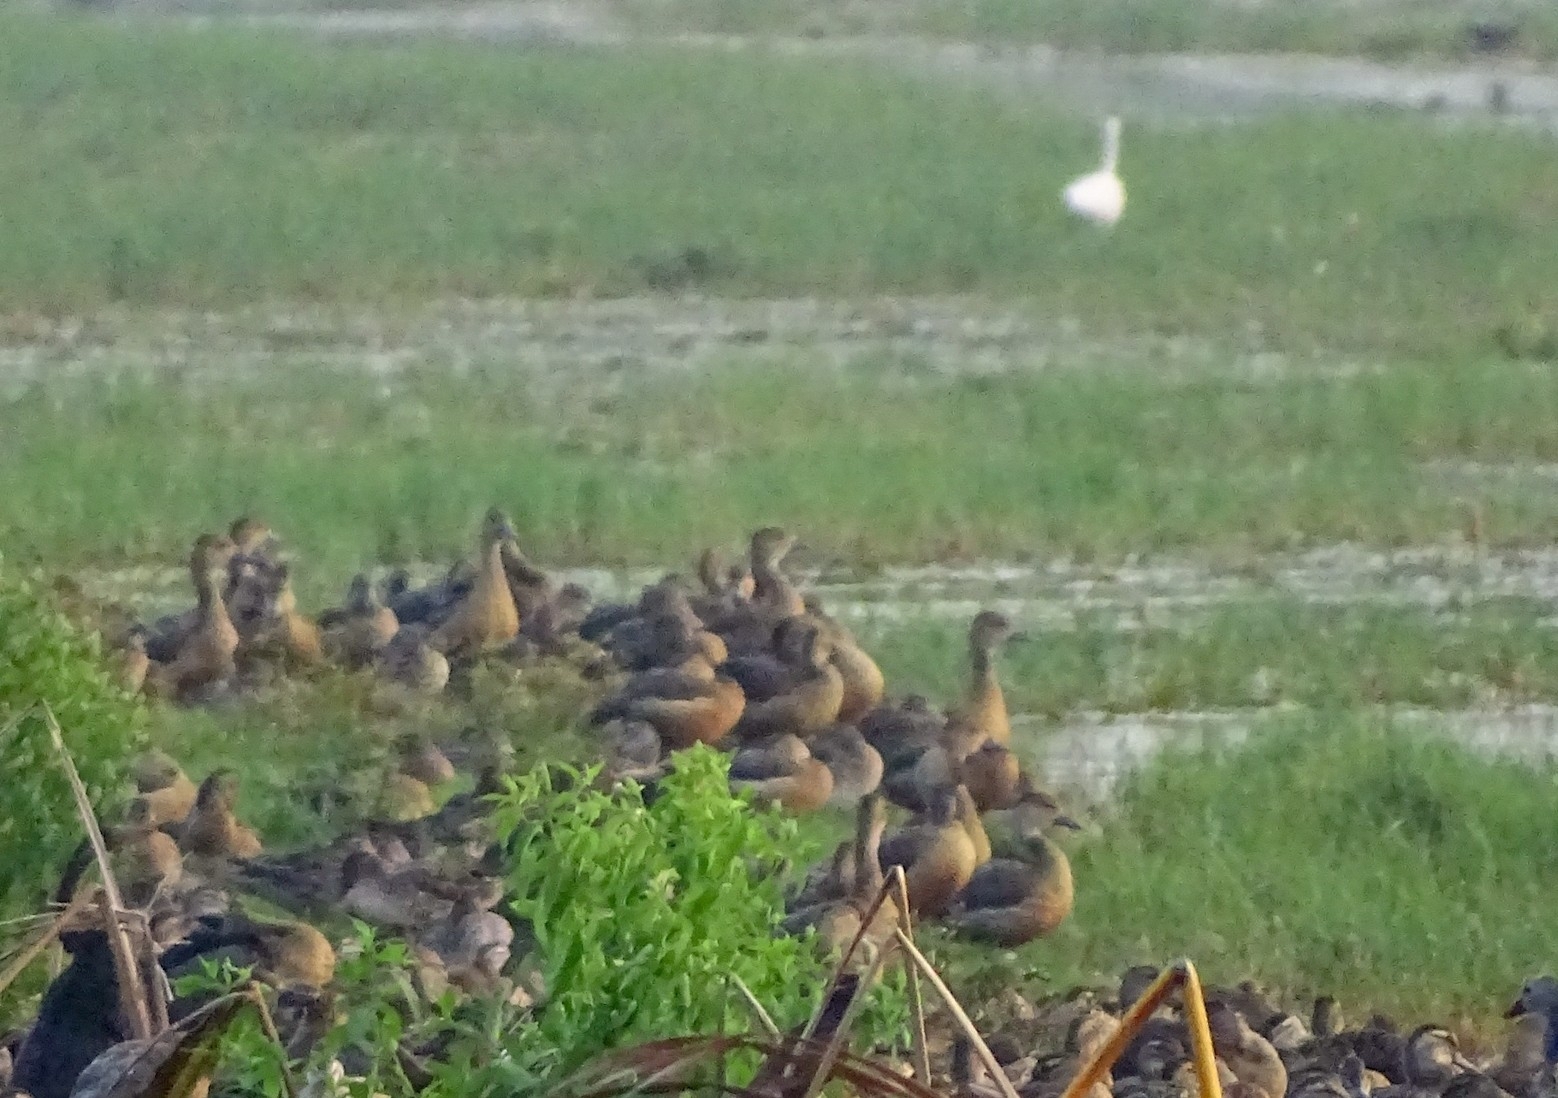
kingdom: Animalia
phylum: Chordata
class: Aves
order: Anseriformes
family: Anatidae
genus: Dendrocygna
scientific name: Dendrocygna javanica
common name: Lesser whistling-duck
